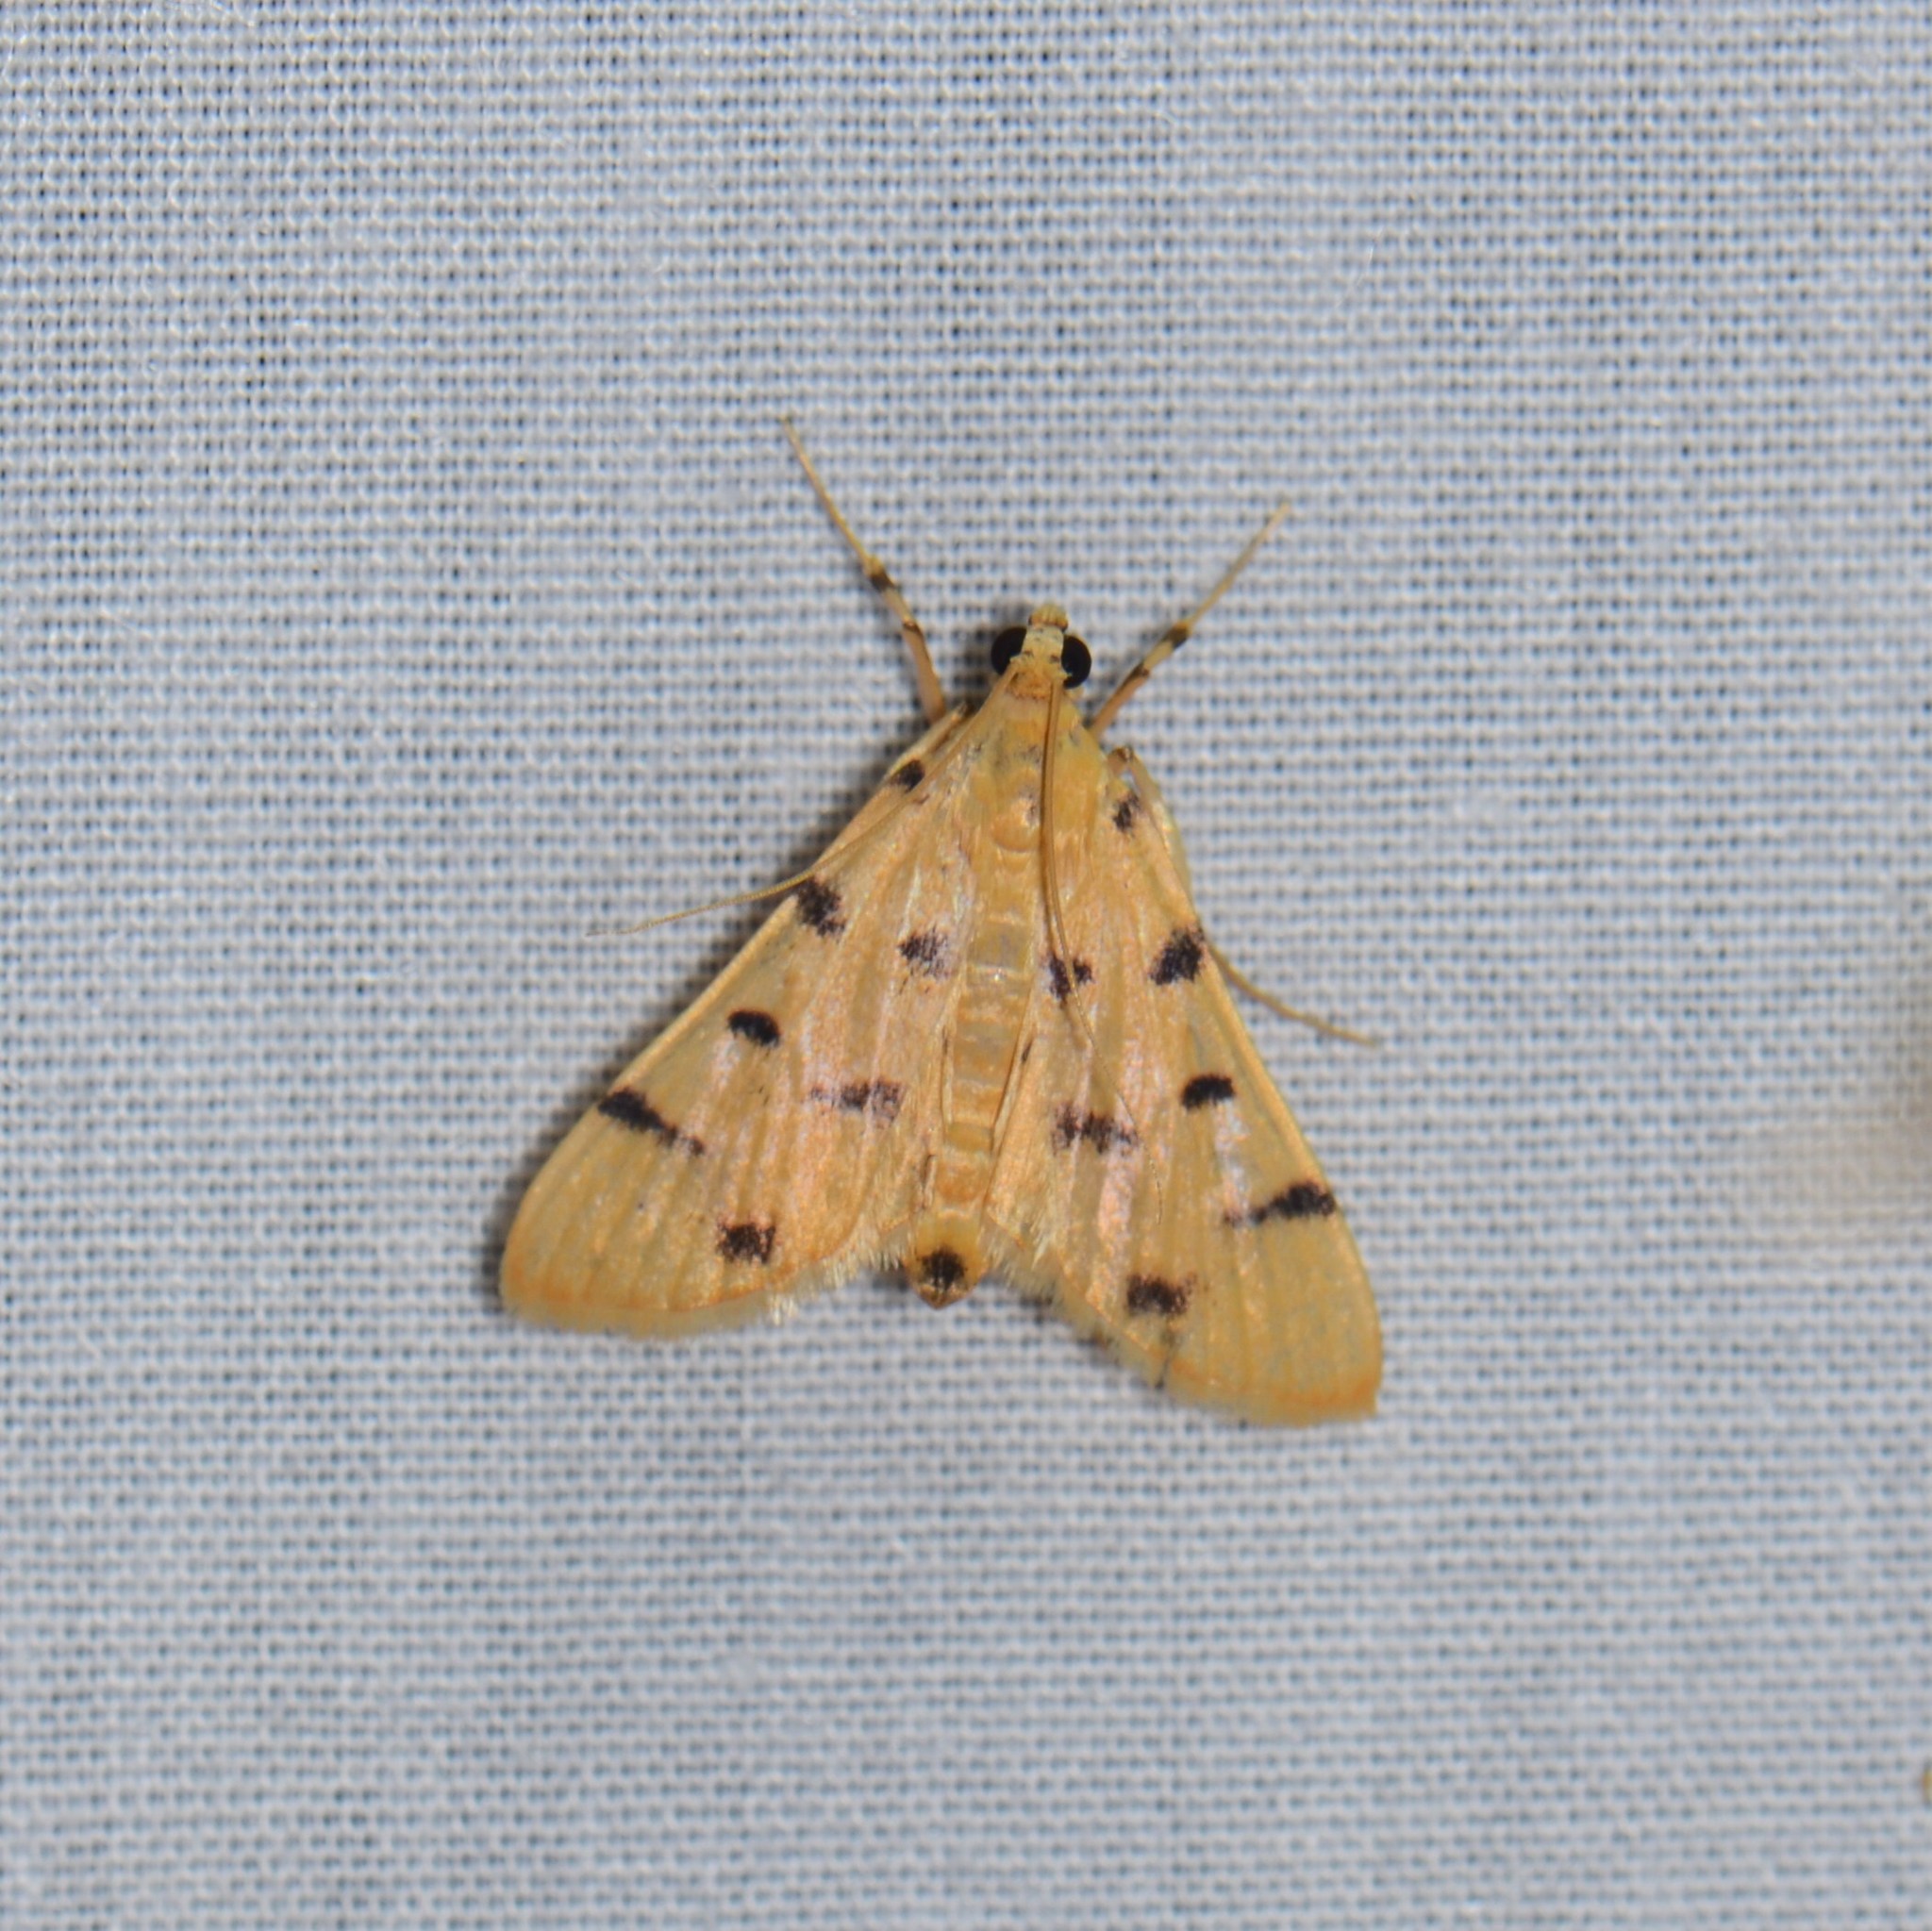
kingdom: Animalia
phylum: Arthropoda
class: Insecta
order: Lepidoptera
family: Crambidae
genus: Xanthomelaena
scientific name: Xanthomelaena schematias
